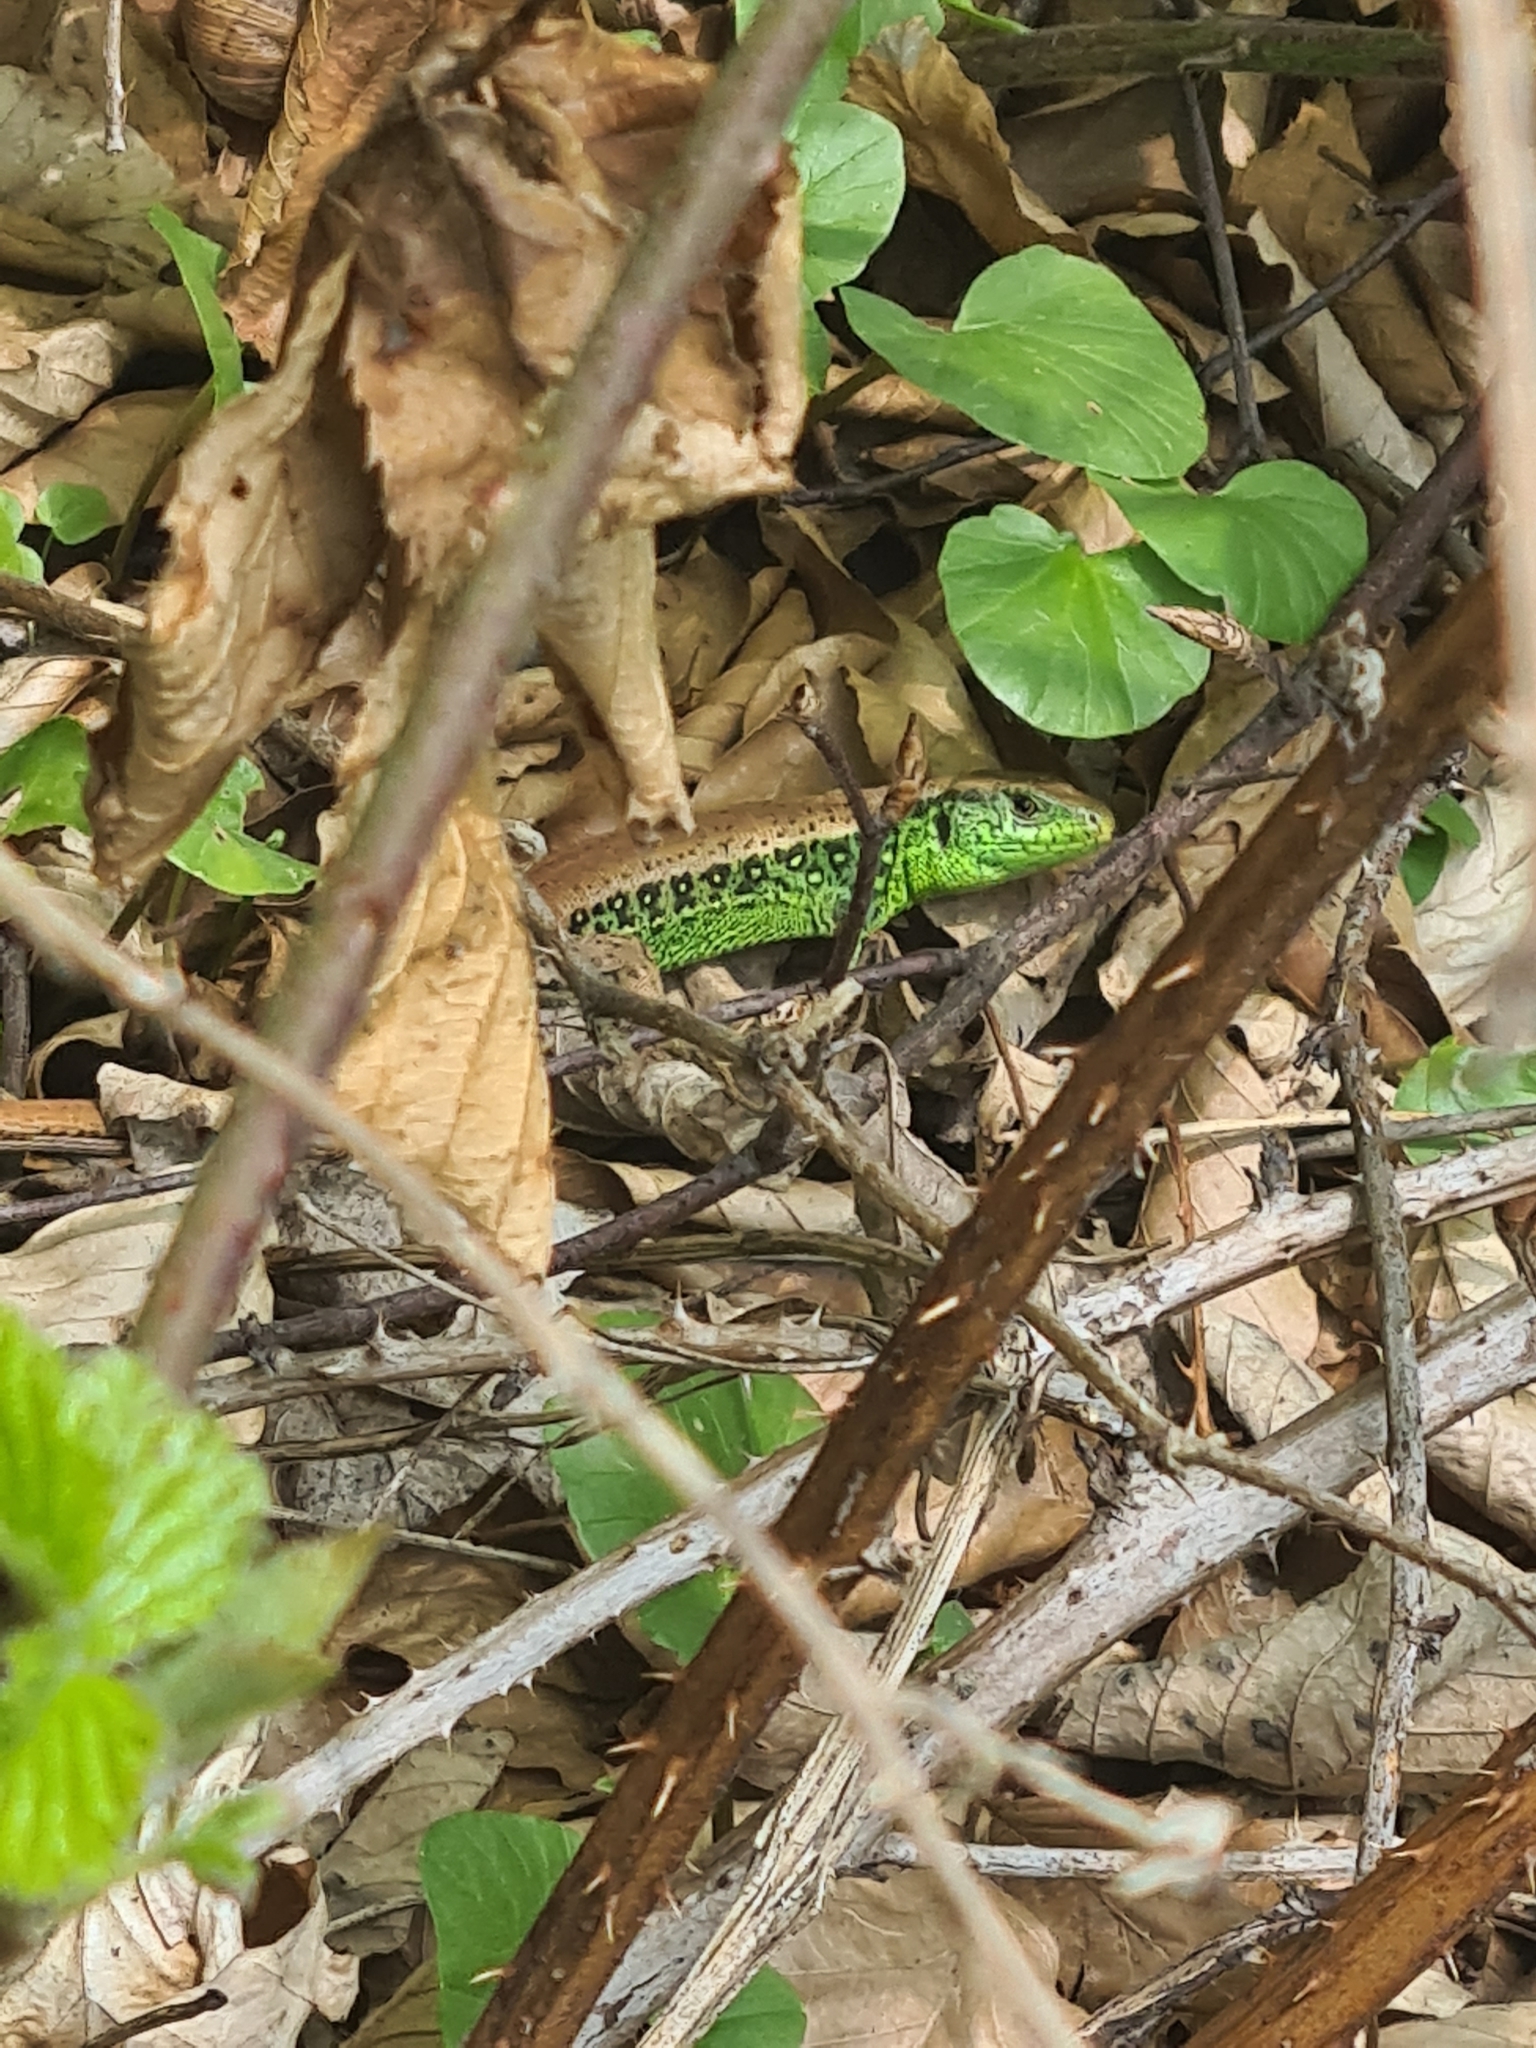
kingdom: Animalia
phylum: Chordata
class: Squamata
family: Lacertidae
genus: Lacerta
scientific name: Lacerta agilis
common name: Sand lizard
